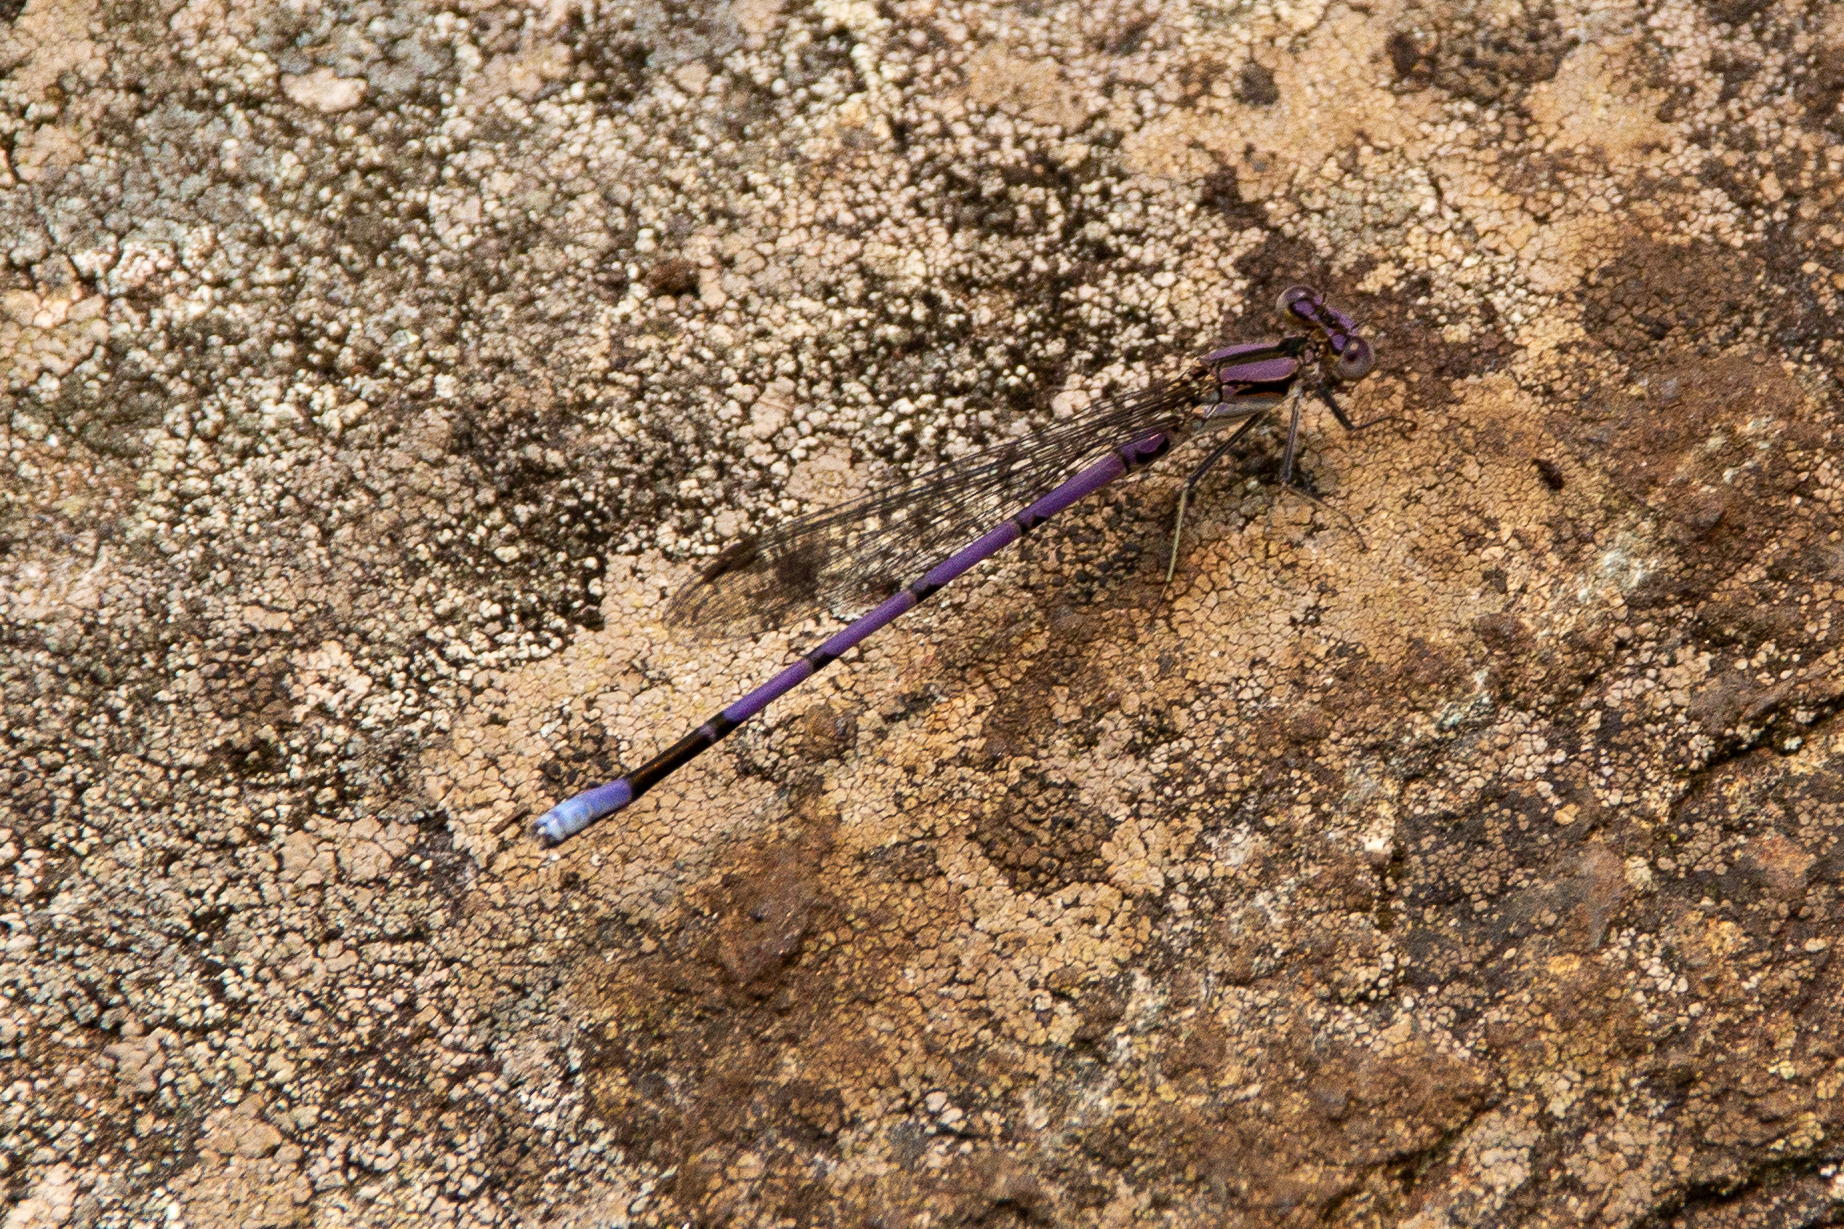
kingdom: Animalia
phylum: Arthropoda
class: Insecta
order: Odonata
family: Coenagrionidae
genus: Argia
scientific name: Argia fumipennis
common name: Variable dancer
